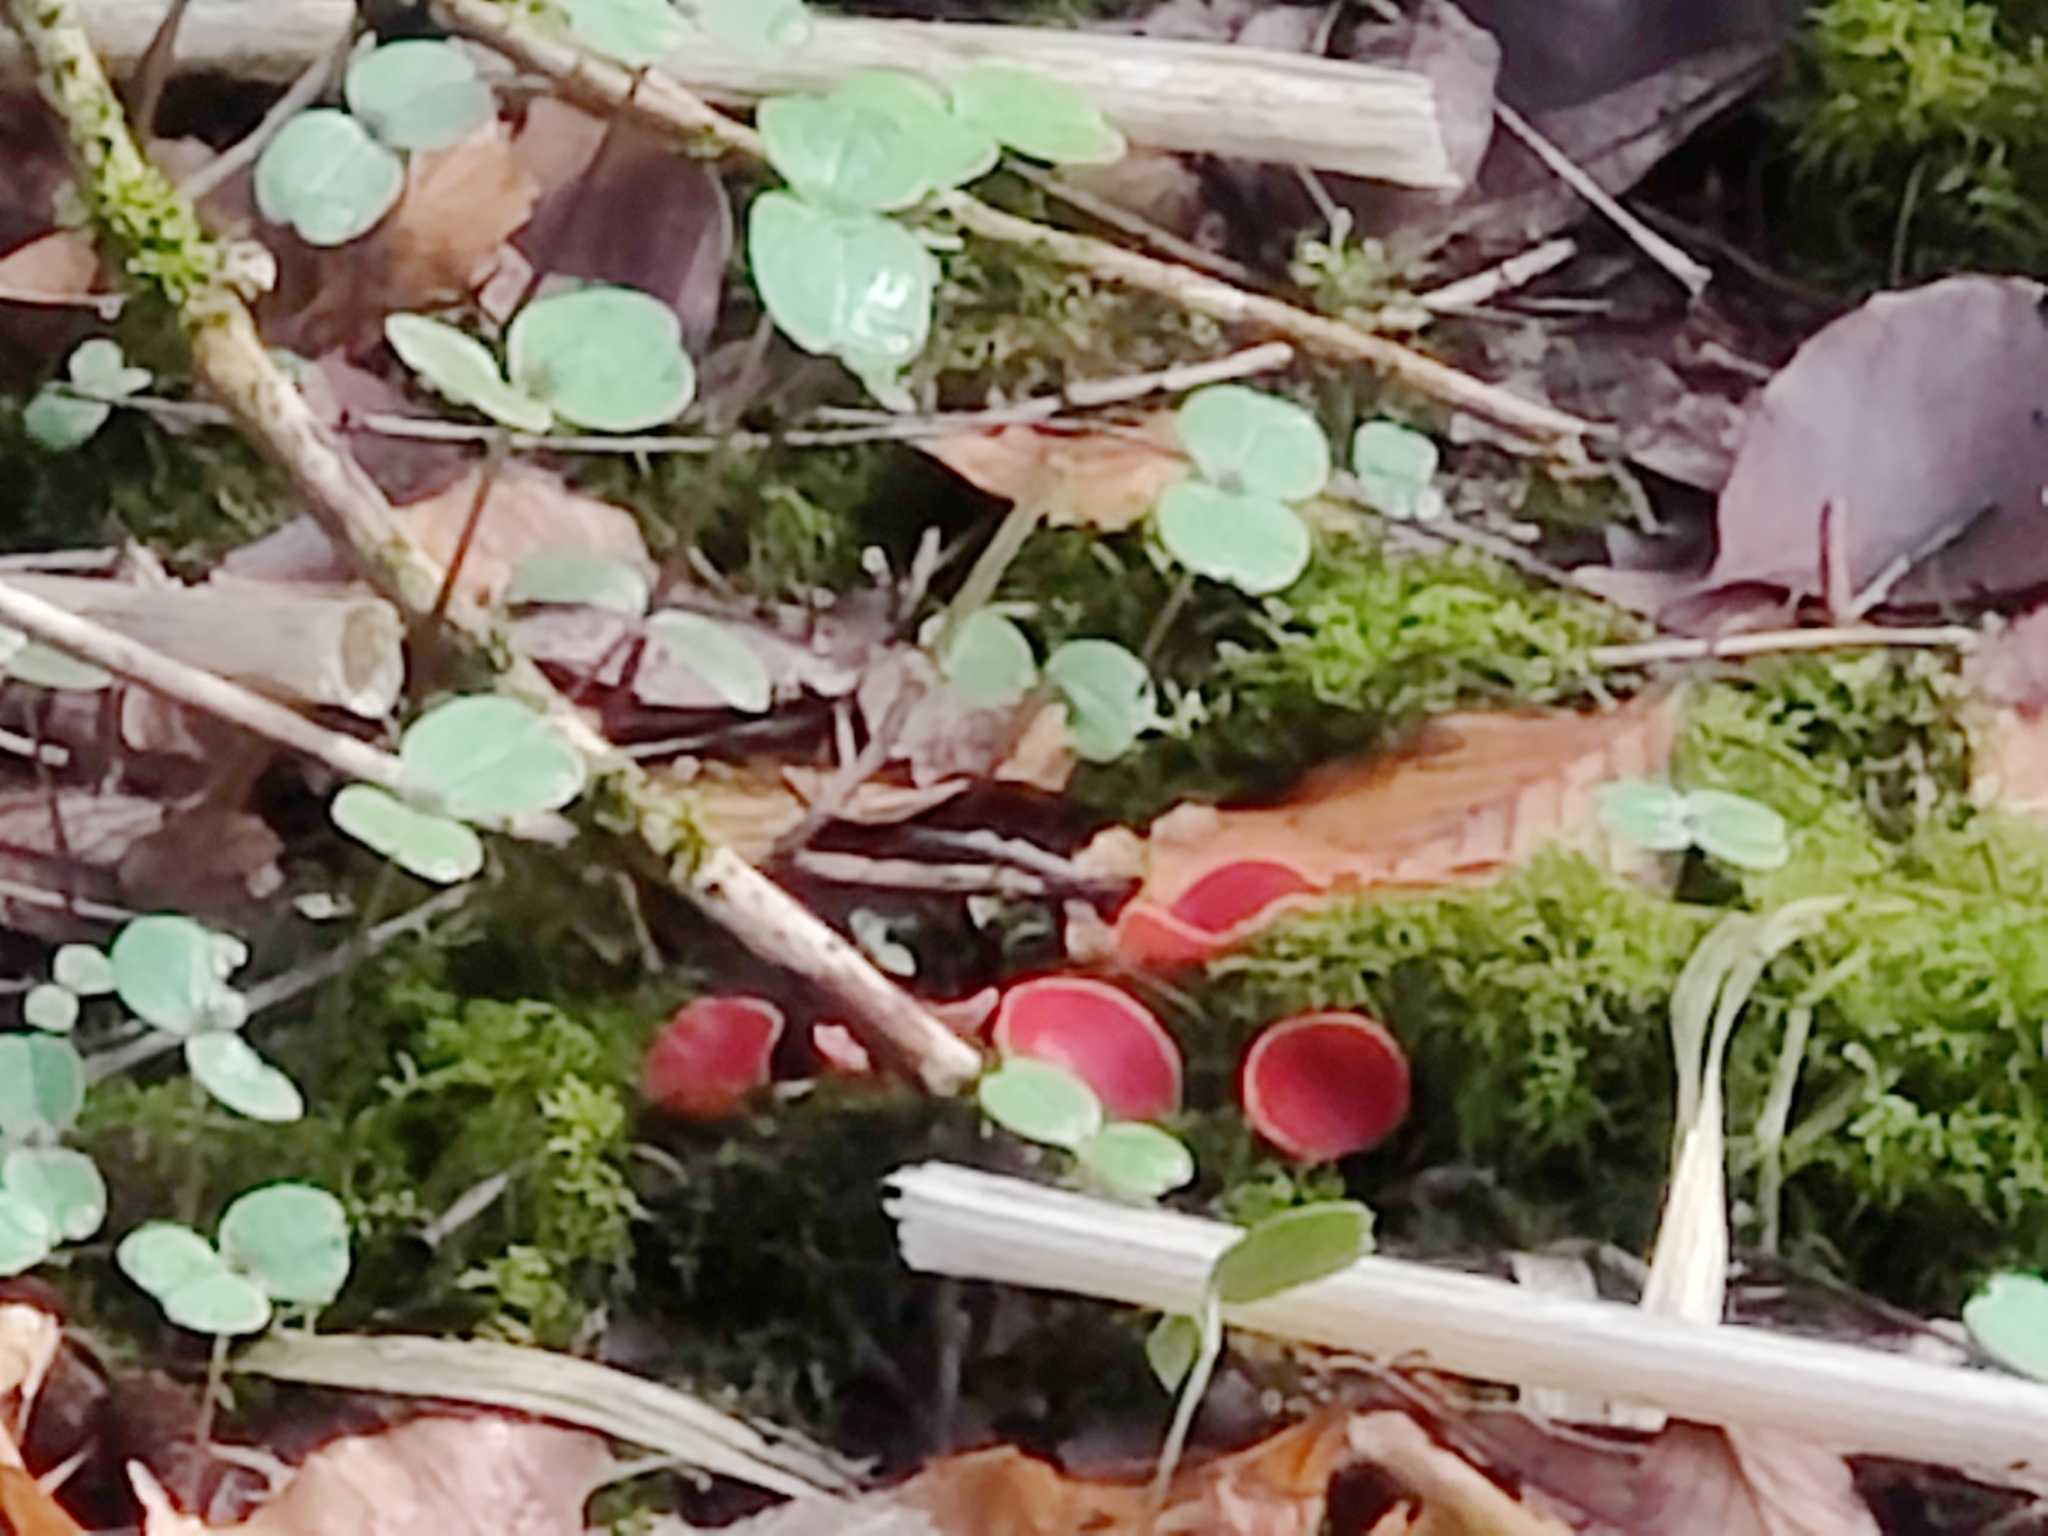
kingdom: Fungi
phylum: Ascomycota
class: Pezizomycetes
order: Pezizales
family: Sarcoscyphaceae
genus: Sarcoscypha
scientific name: Sarcoscypha
